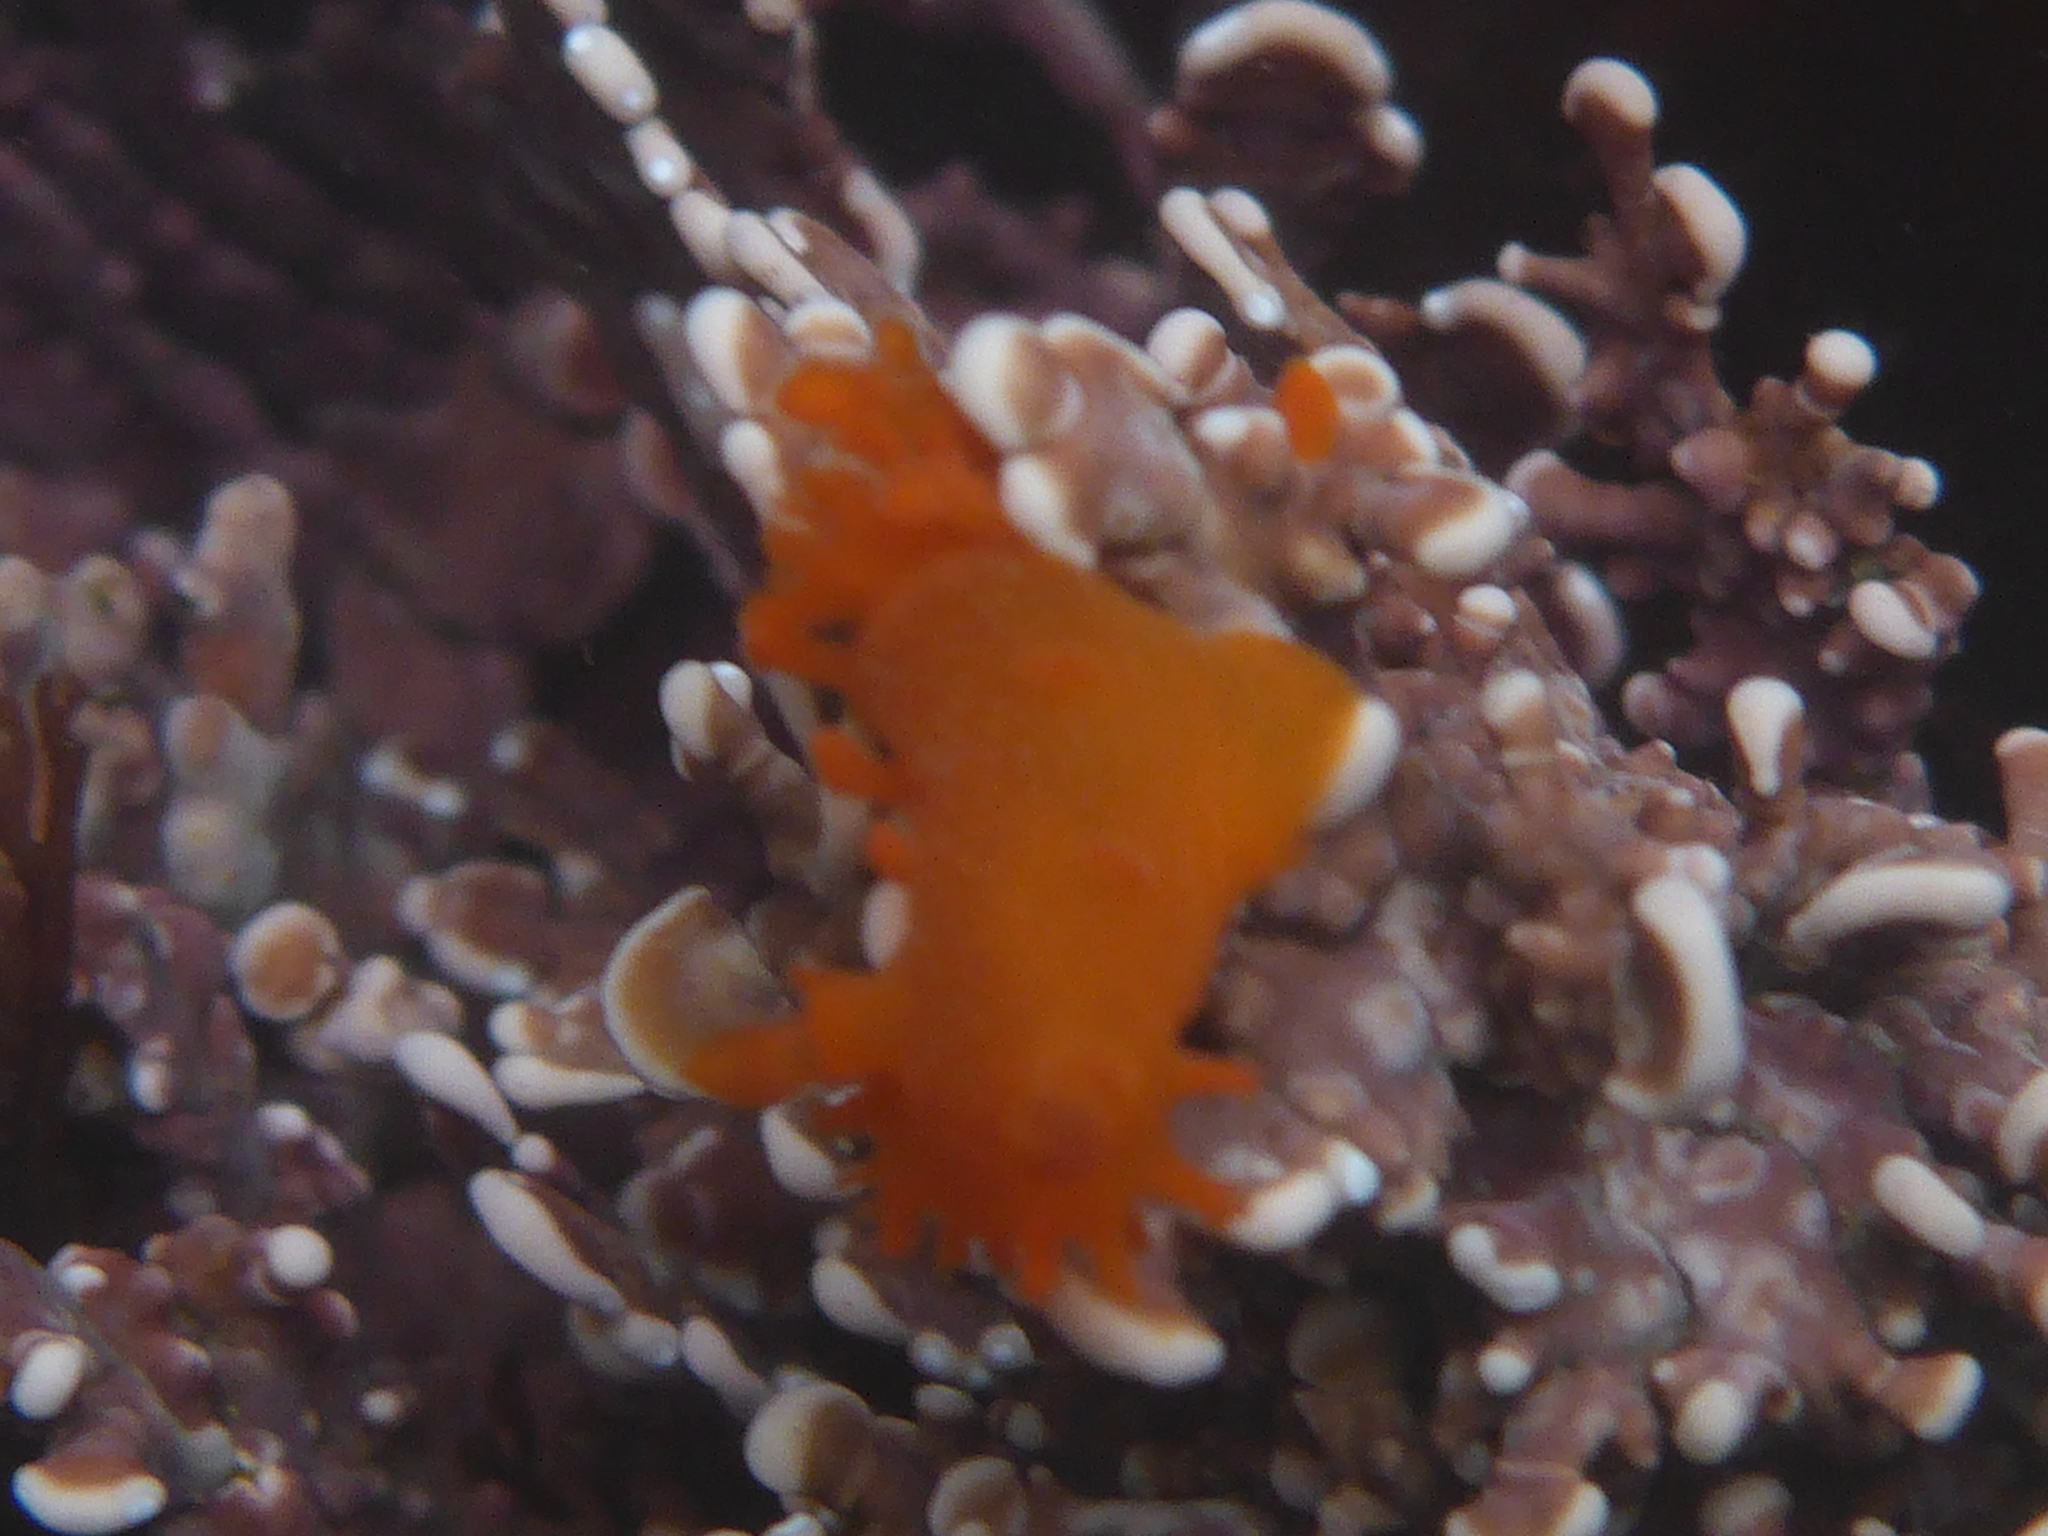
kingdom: Animalia
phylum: Mollusca
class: Gastropoda
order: Nudibranchia
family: Polyceridae
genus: Triopha
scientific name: Triopha maculata
